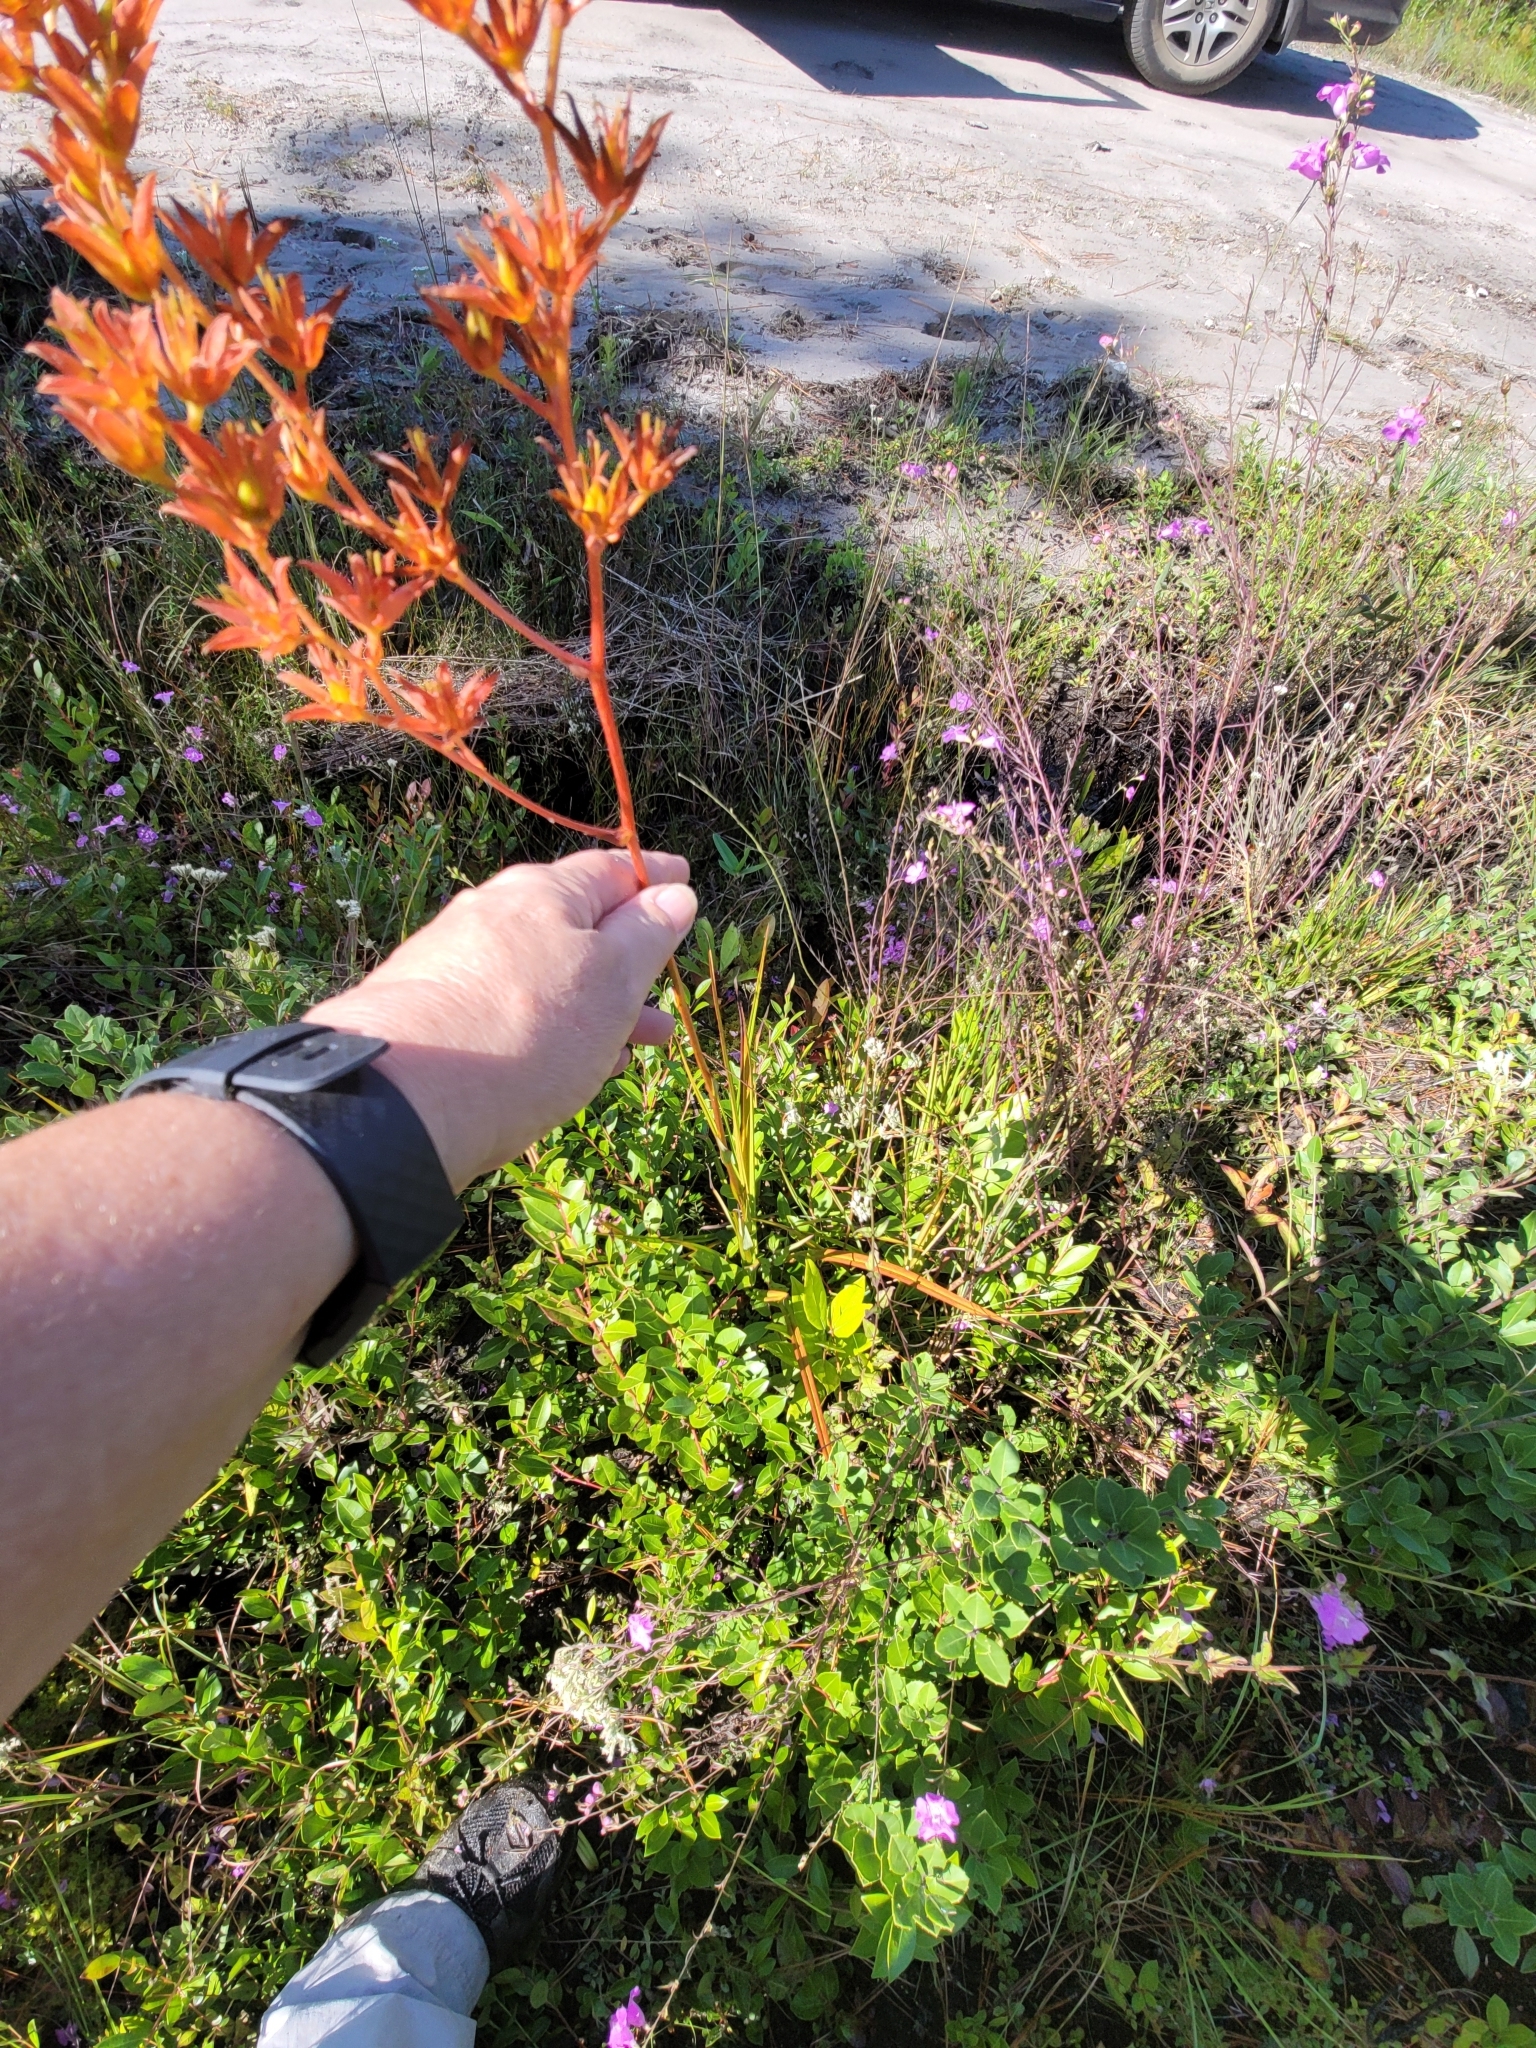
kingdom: Plantae
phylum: Tracheophyta
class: Liliopsida
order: Liliales
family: Melanthiaceae
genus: Zigadenus
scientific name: Zigadenus glaberrimus
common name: Sandbog death camas
